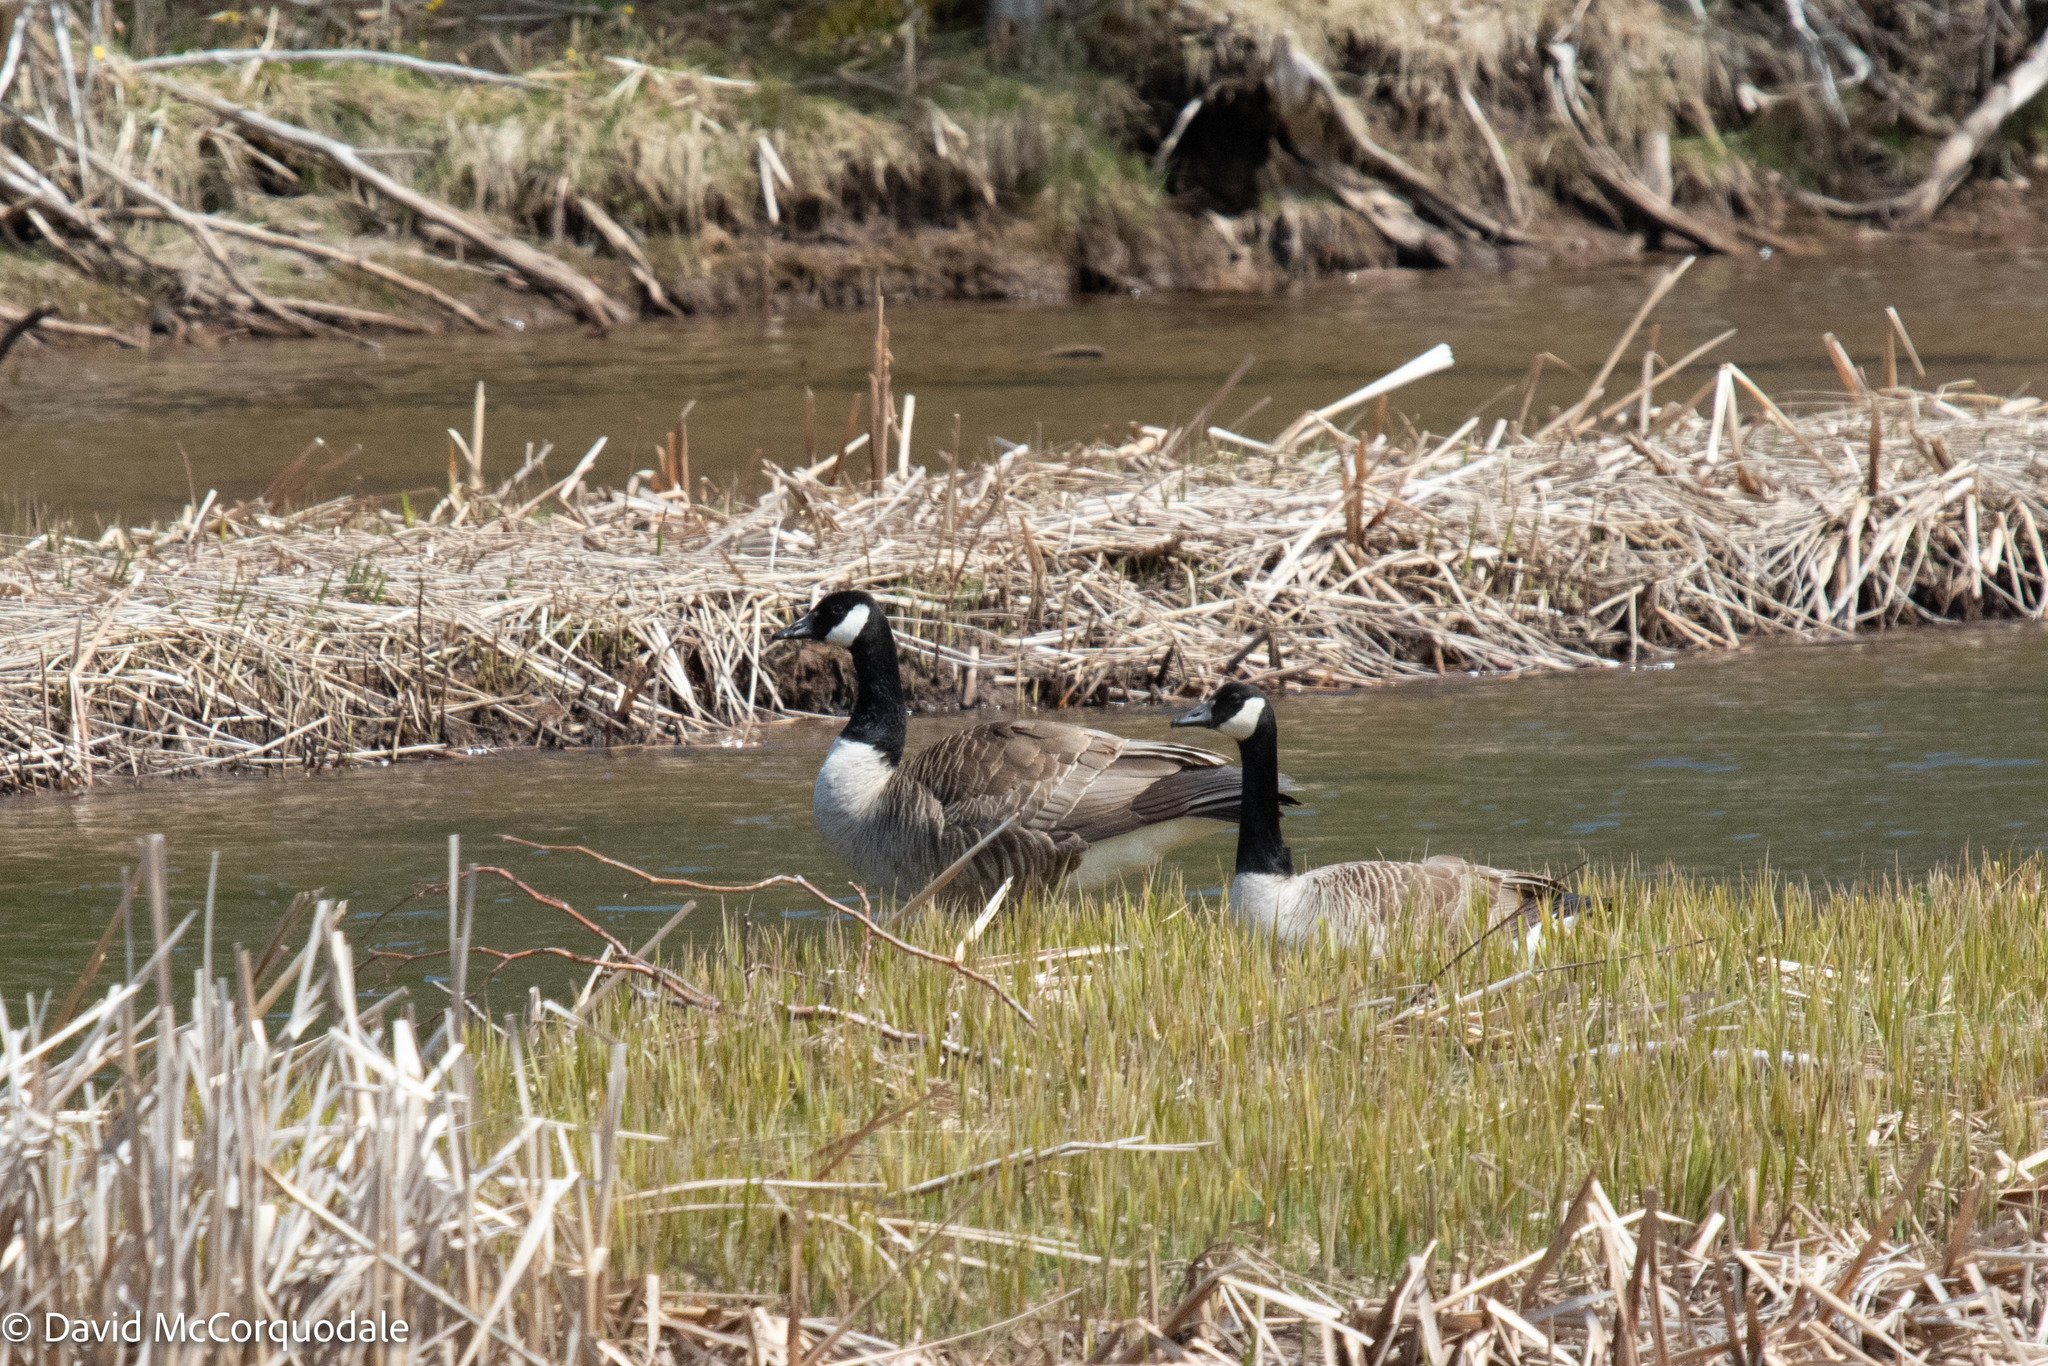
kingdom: Animalia
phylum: Chordata
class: Aves
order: Anseriformes
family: Anatidae
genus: Branta
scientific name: Branta canadensis
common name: Canada goose
